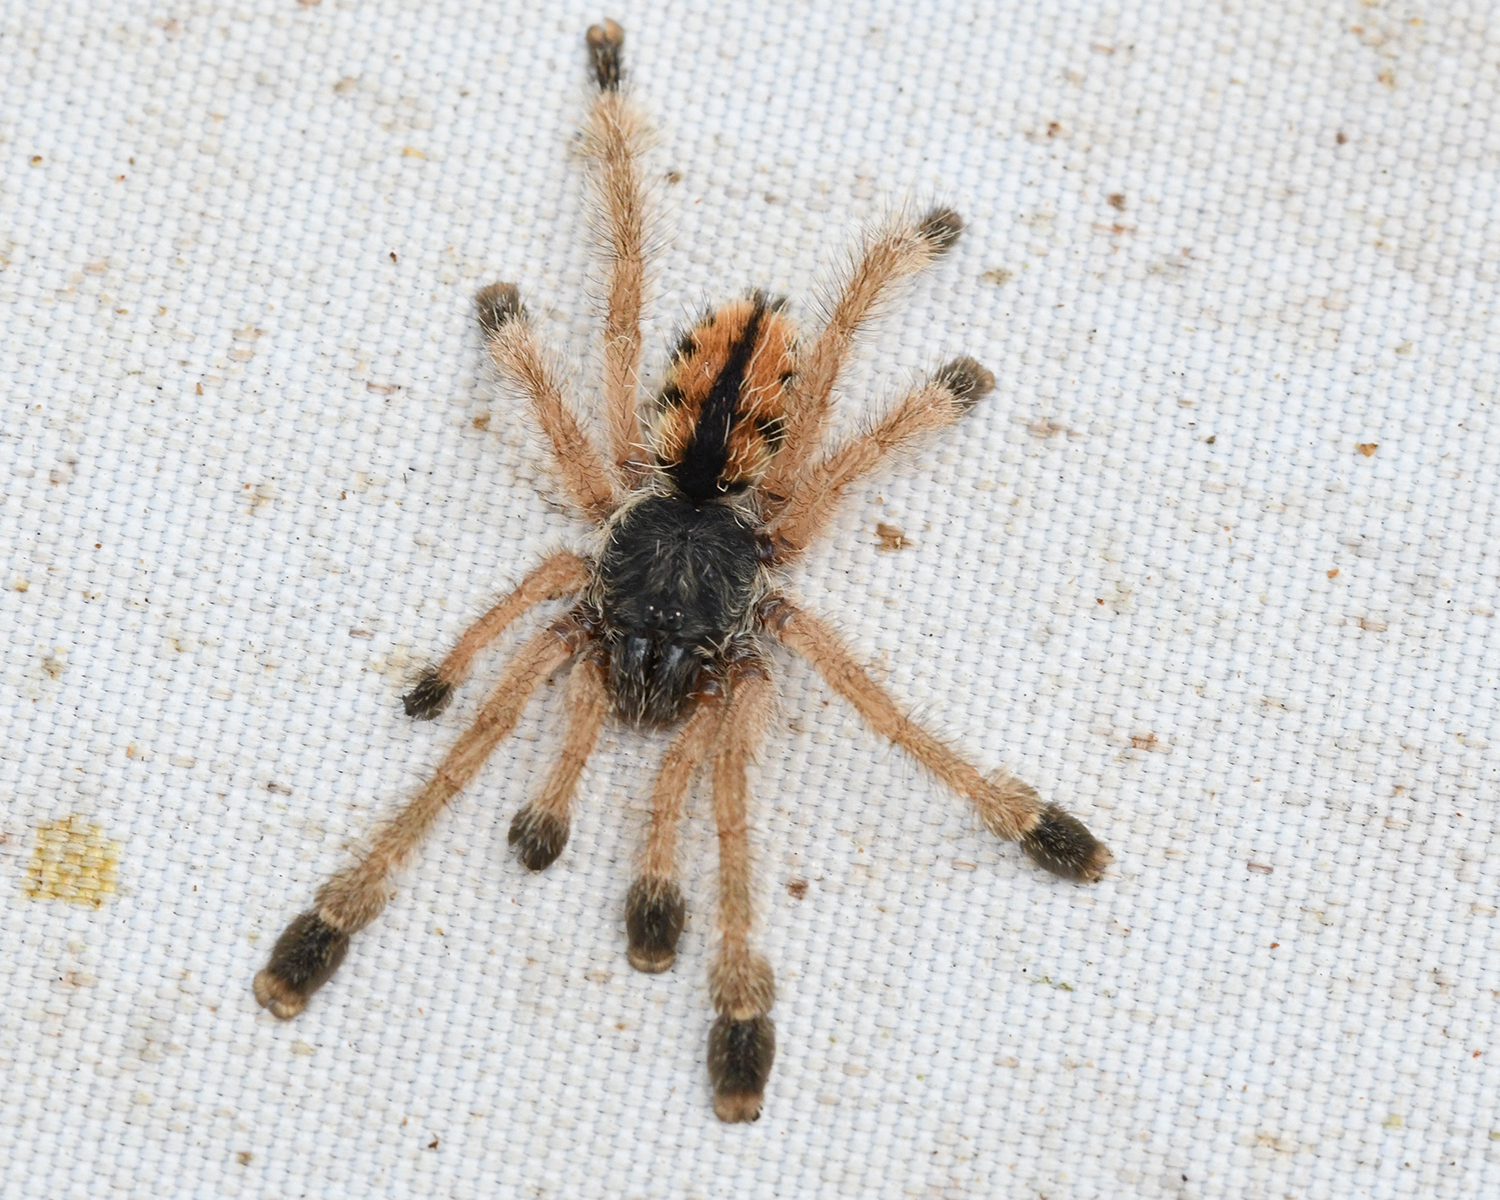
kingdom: Animalia
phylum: Arthropoda
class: Arachnida
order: Araneae
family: Theraphosidae
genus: Avicularia
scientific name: Avicularia avicularia
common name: Tarantula spiders
